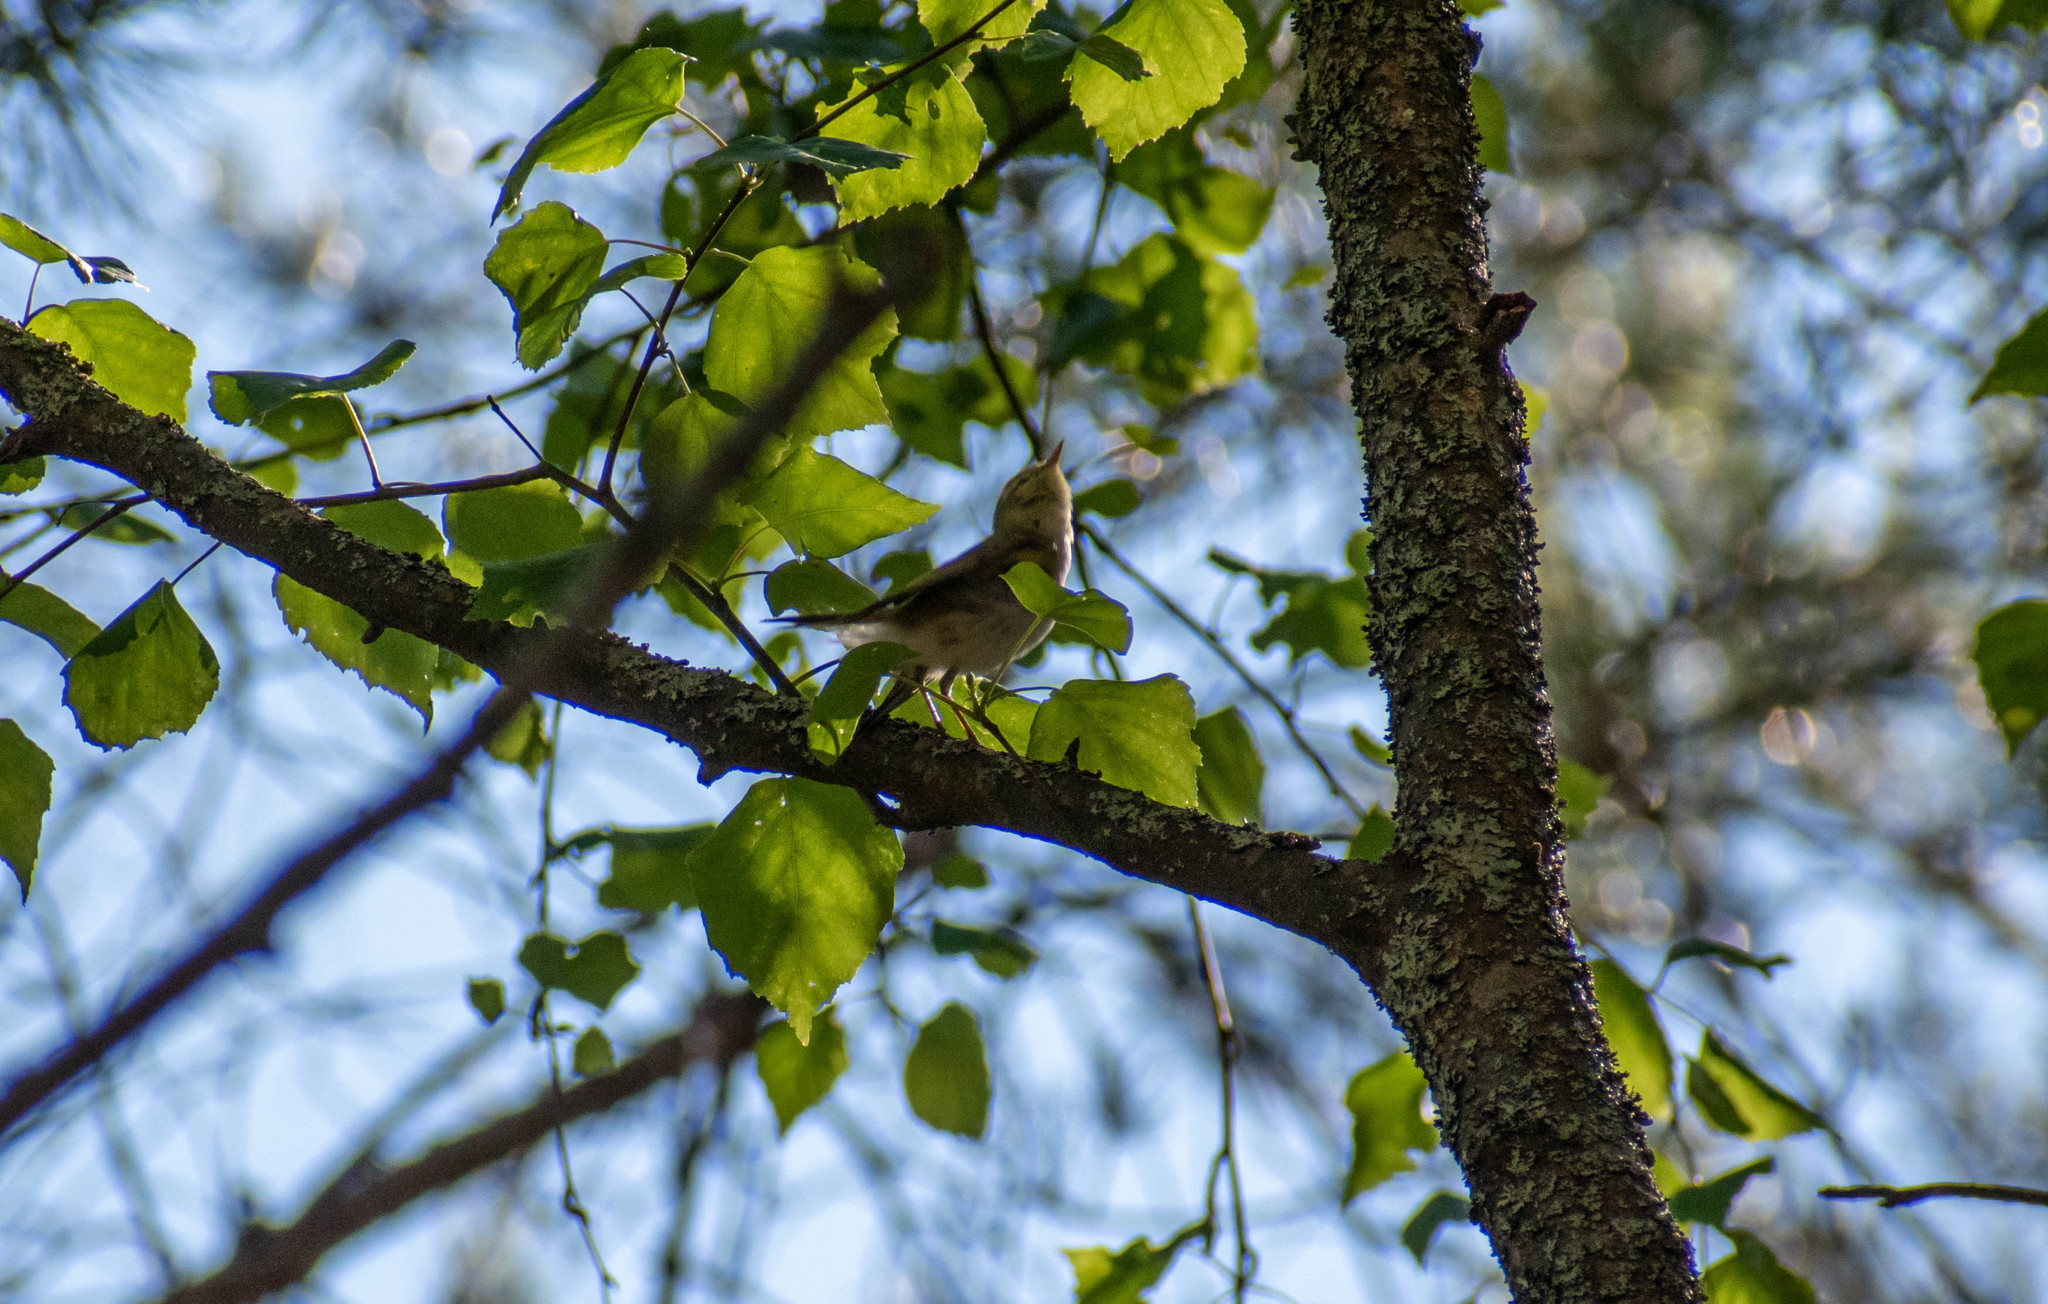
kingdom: Animalia
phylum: Chordata
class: Aves
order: Passeriformes
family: Phylloscopidae
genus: Phylloscopus
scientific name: Phylloscopus sibillatrix
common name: Wood warbler
